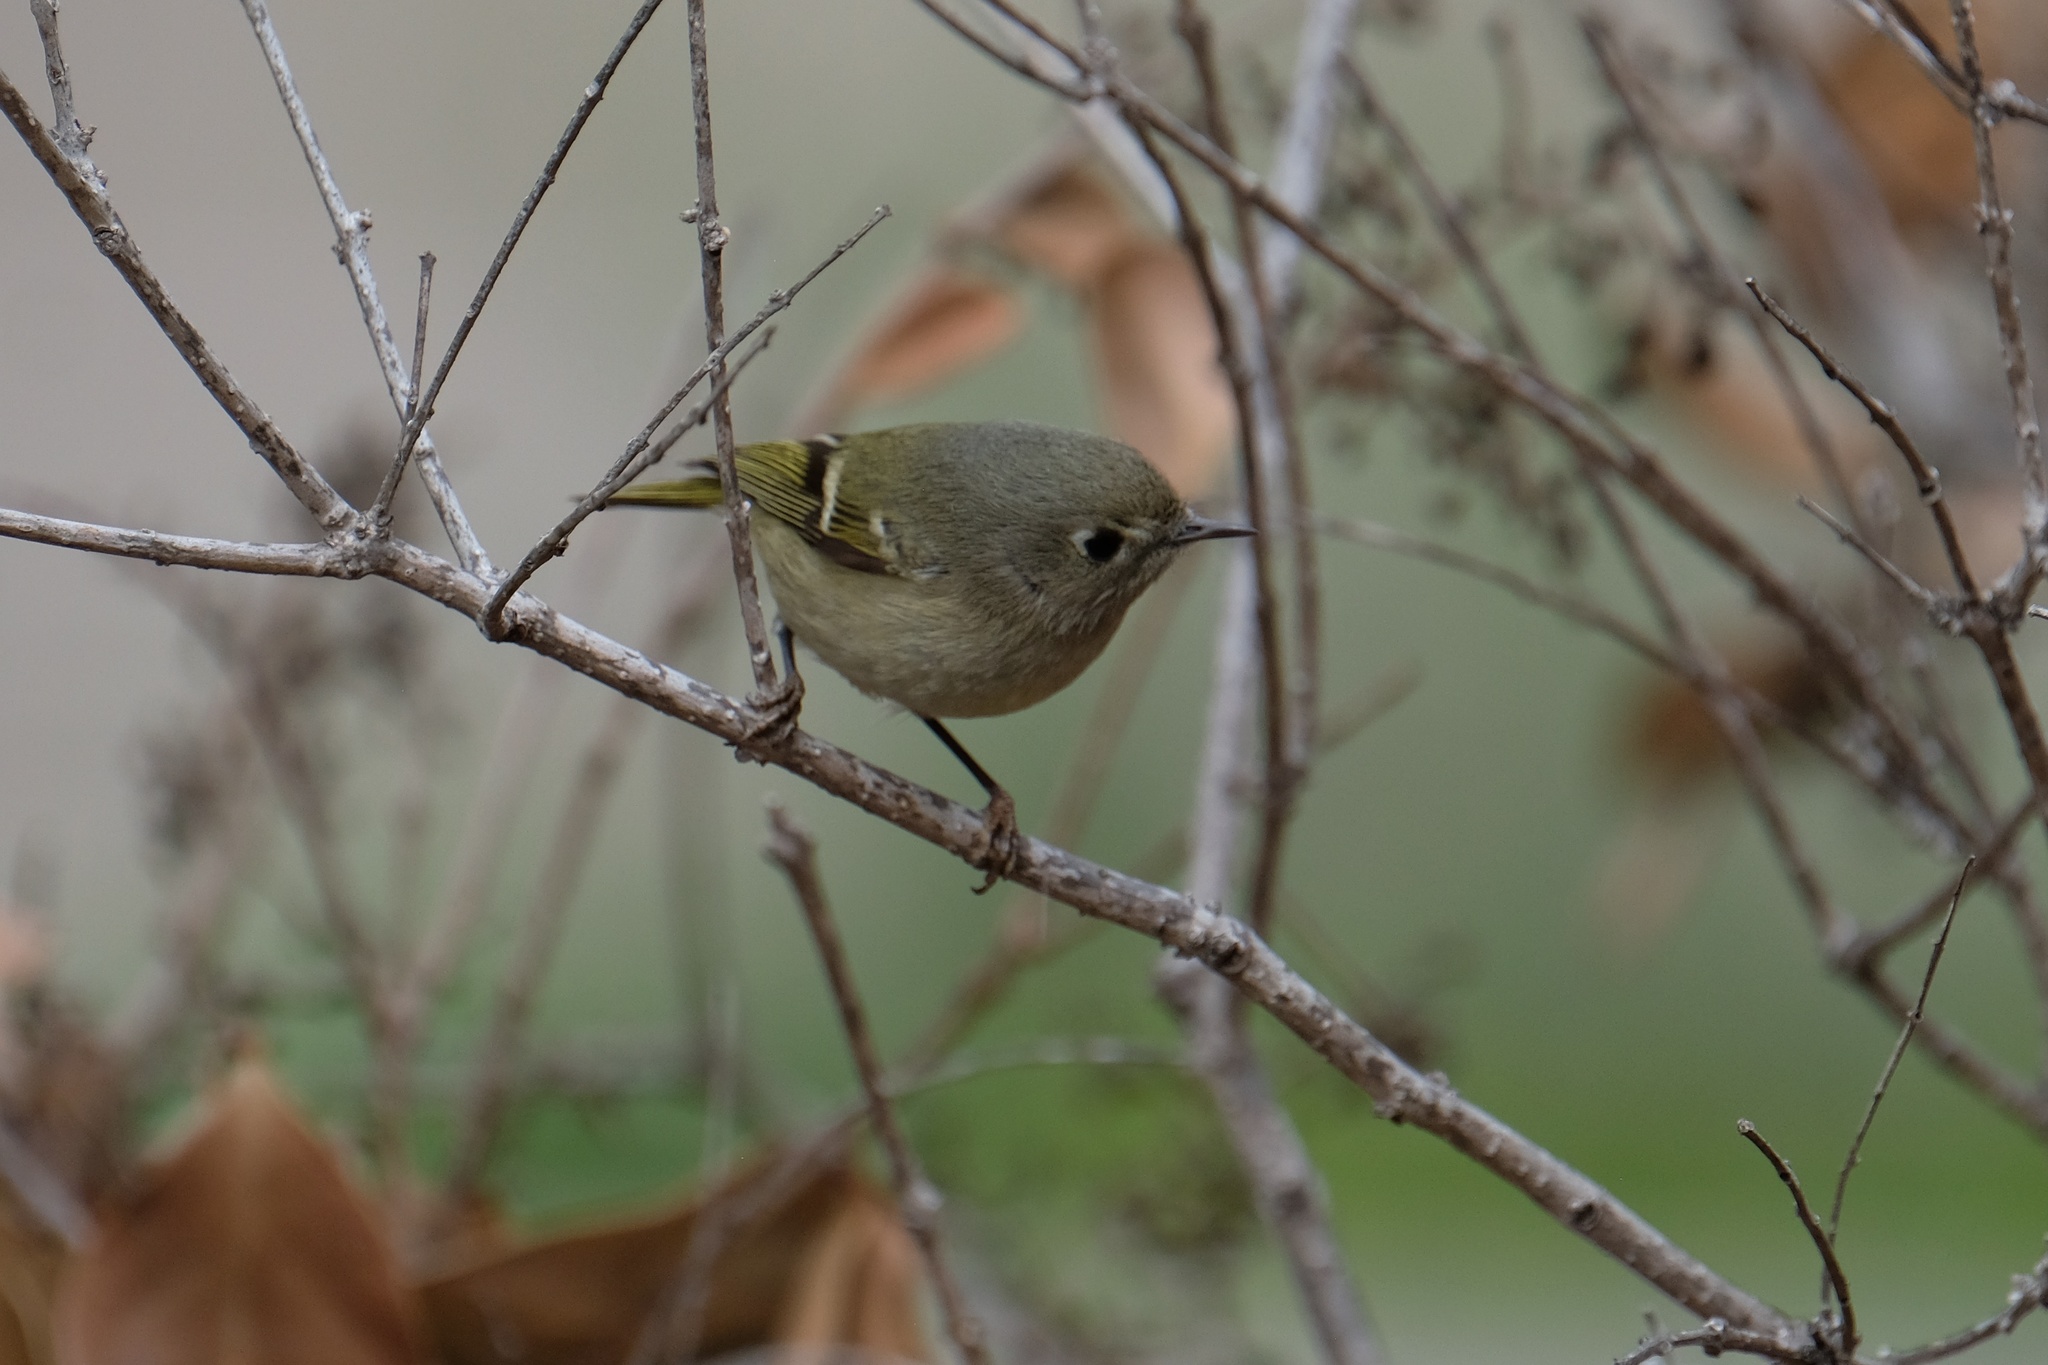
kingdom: Animalia
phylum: Chordata
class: Aves
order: Passeriformes
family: Regulidae
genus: Regulus
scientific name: Regulus calendula
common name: Ruby-crowned kinglet
